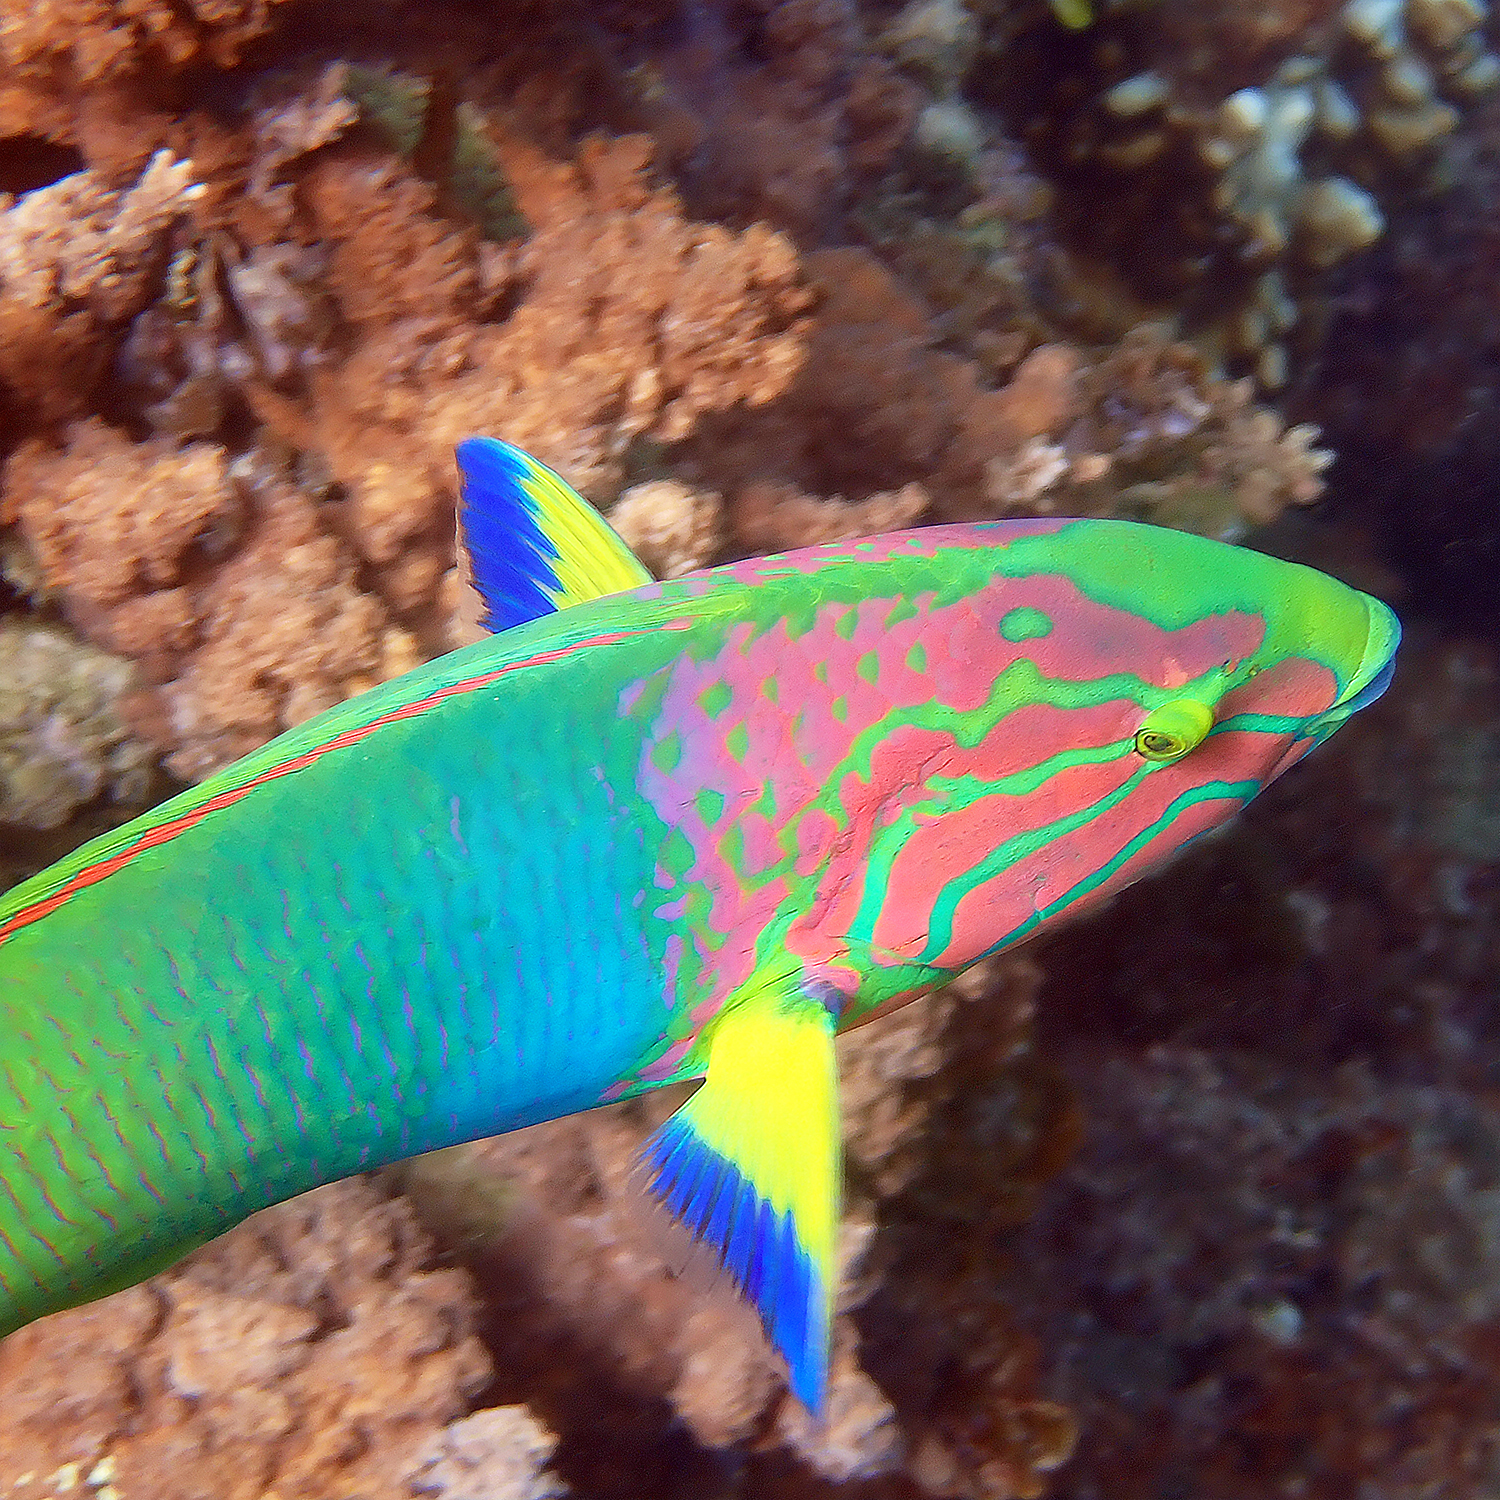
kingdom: Animalia
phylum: Chordata
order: Perciformes
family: Labridae
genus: Thalassoma
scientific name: Thalassoma lutescens
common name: Green moon wrasse
